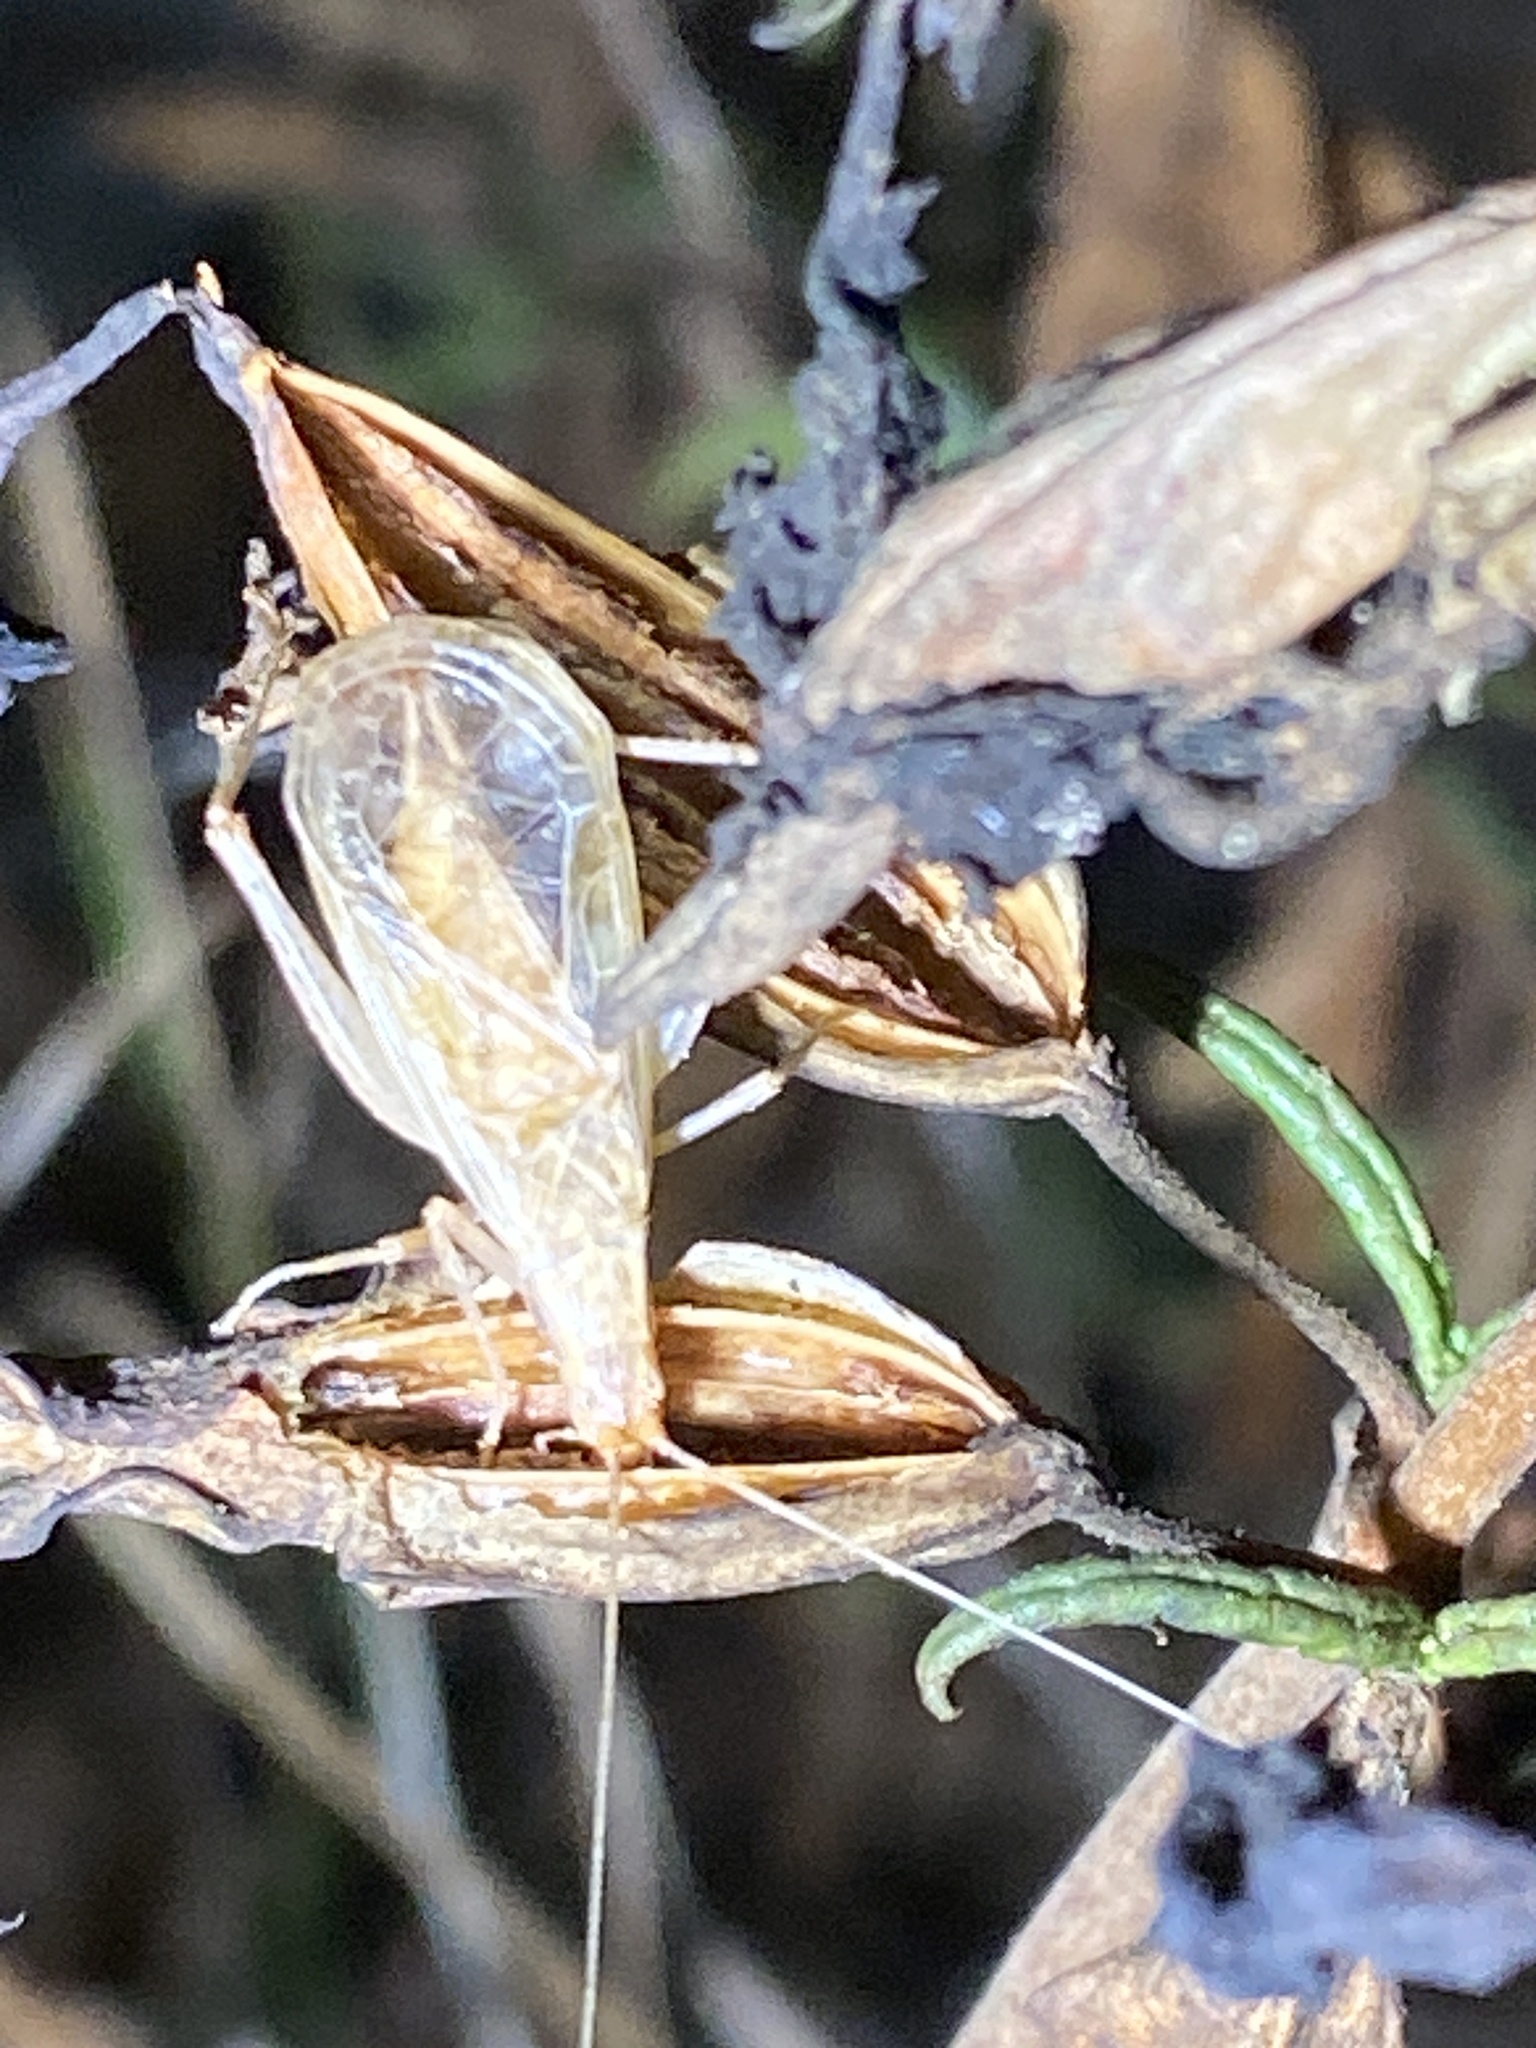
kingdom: Animalia
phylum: Arthropoda
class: Insecta
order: Orthoptera
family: Gryllidae
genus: Oecanthus
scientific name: Oecanthus californicus
